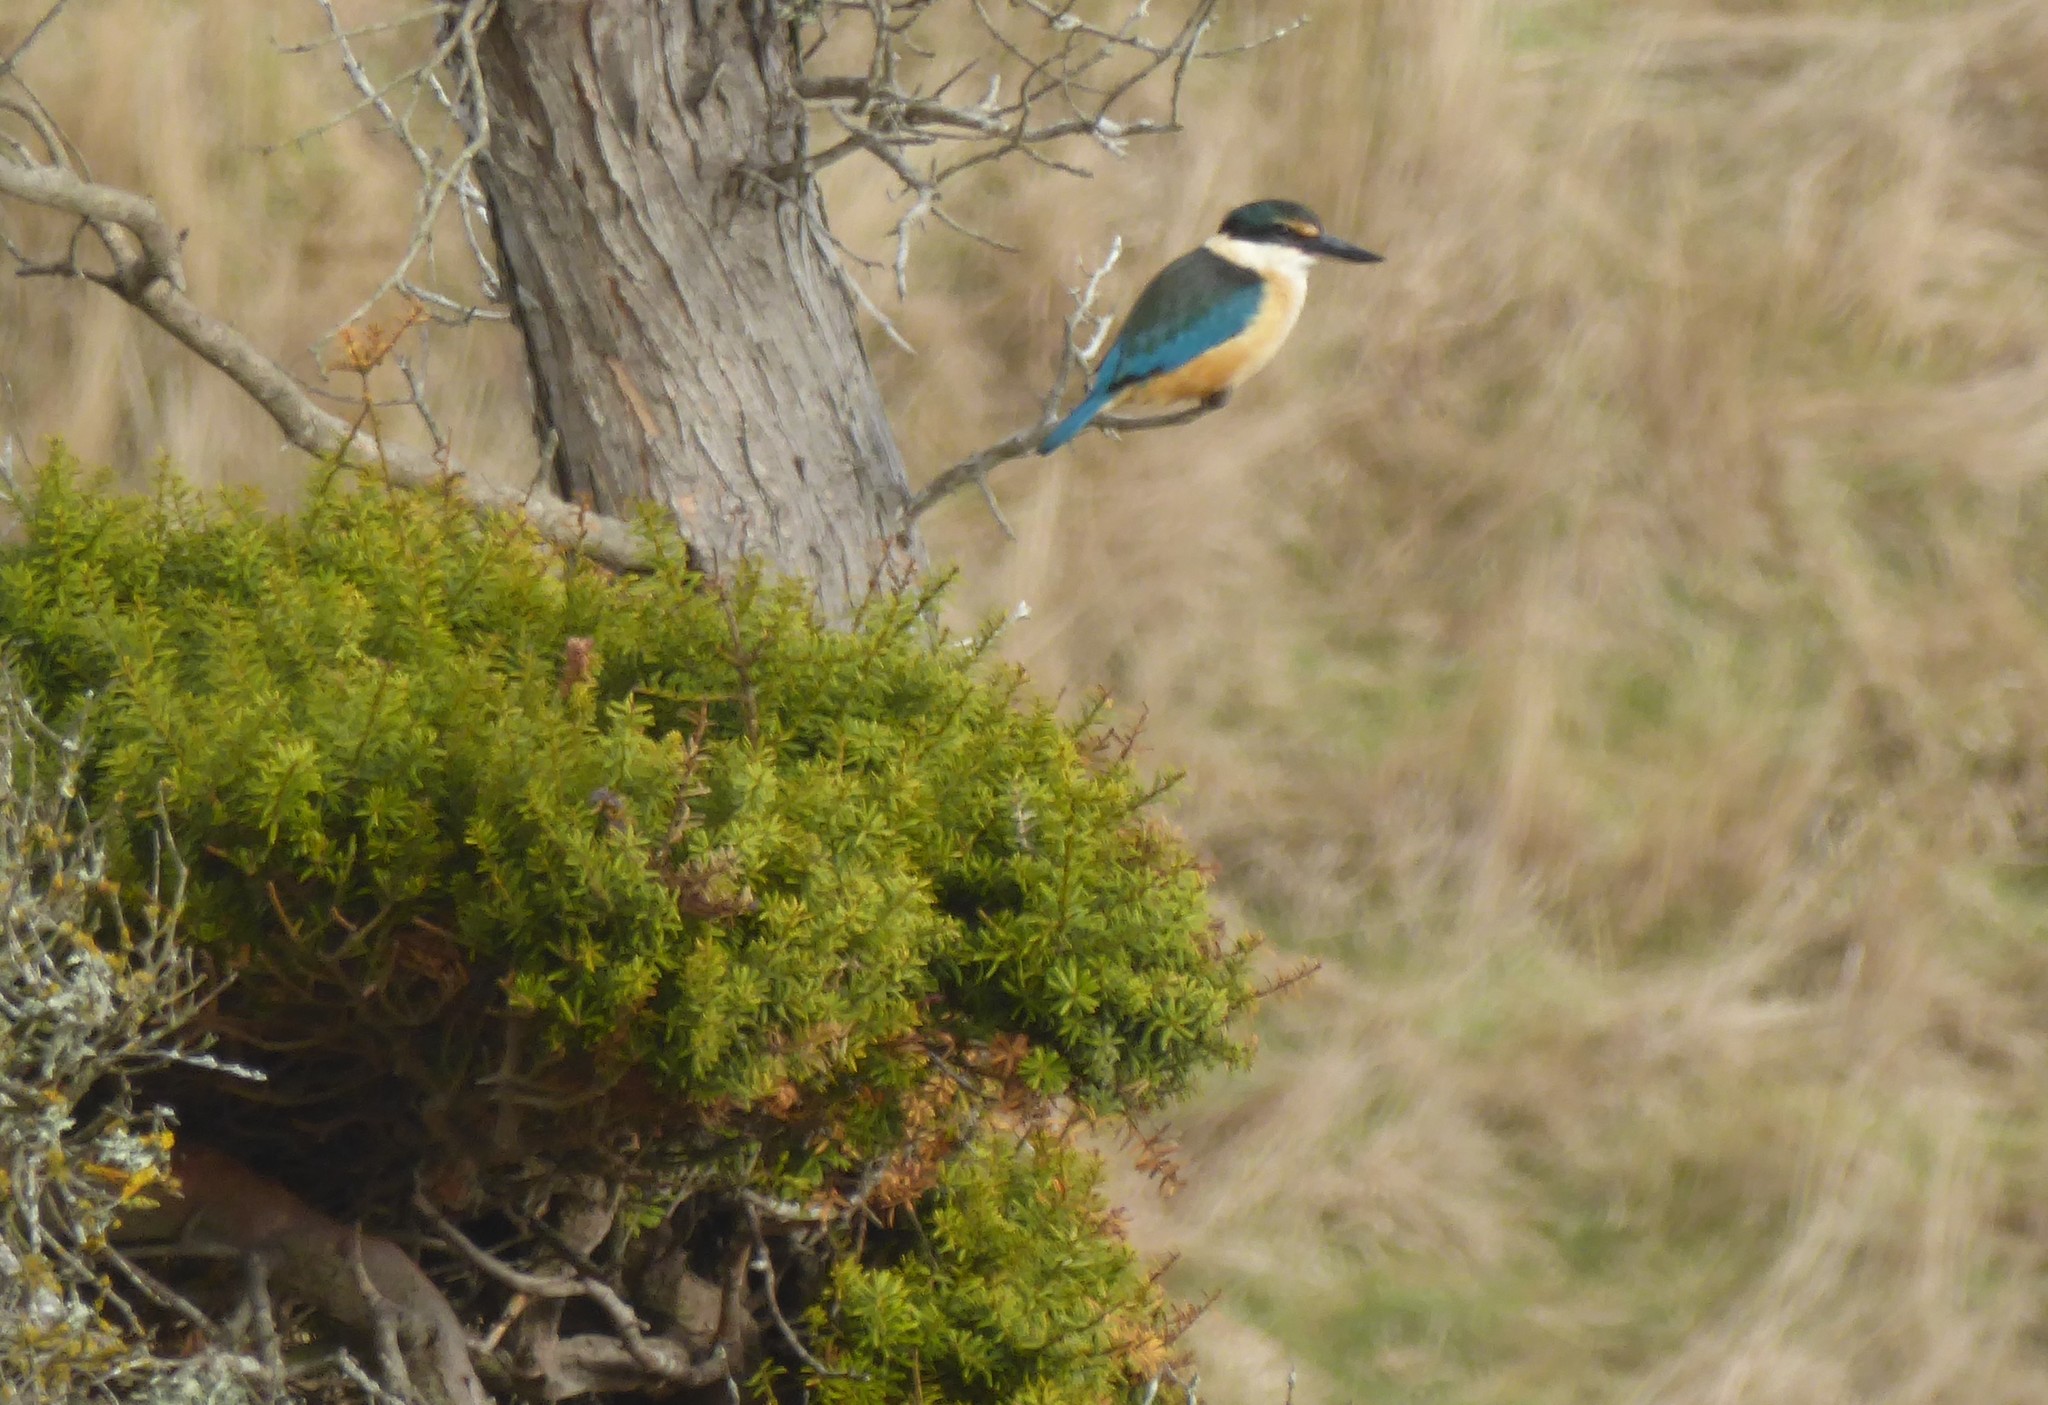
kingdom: Animalia
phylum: Chordata
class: Aves
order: Coraciiformes
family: Alcedinidae
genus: Todiramphus
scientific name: Todiramphus sanctus
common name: Sacred kingfisher
